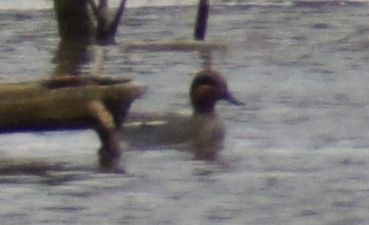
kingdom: Animalia
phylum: Chordata
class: Aves
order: Anseriformes
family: Anatidae
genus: Anas
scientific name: Anas crecca
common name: Eurasian teal
